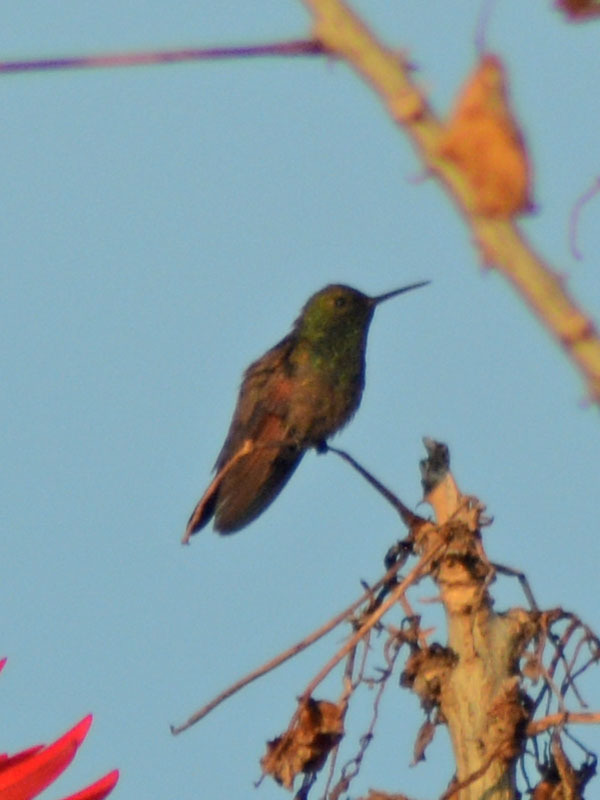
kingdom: Animalia
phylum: Chordata
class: Aves
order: Apodiformes
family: Trochilidae
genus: Saucerottia
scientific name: Saucerottia beryllina
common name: Berylline hummingbird
